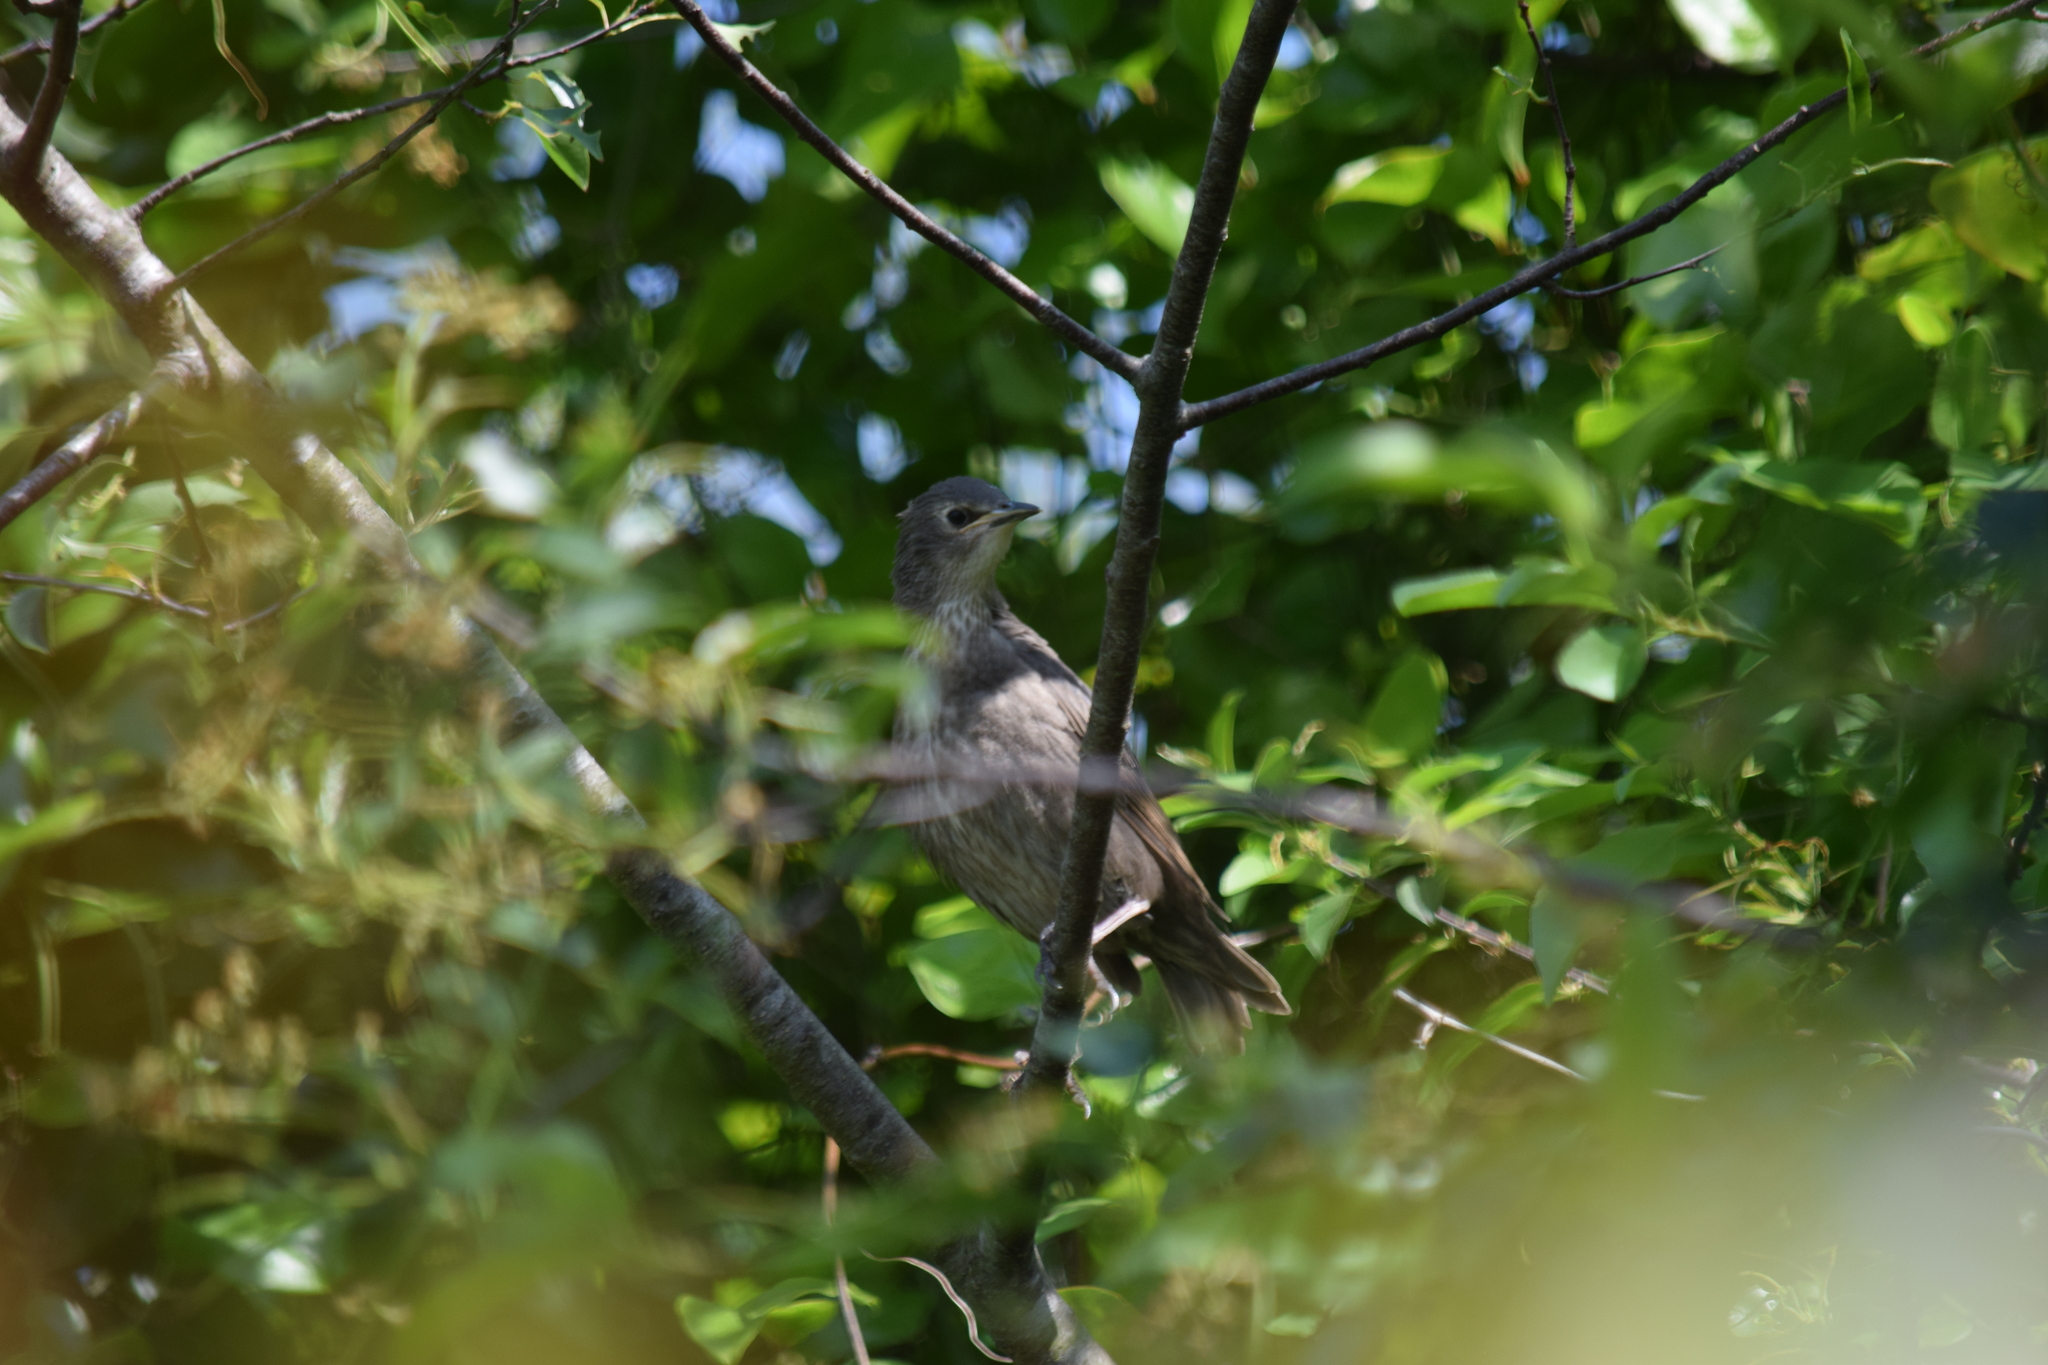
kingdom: Animalia
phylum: Chordata
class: Aves
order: Passeriformes
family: Sturnidae
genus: Sturnus
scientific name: Sturnus vulgaris
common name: Common starling
